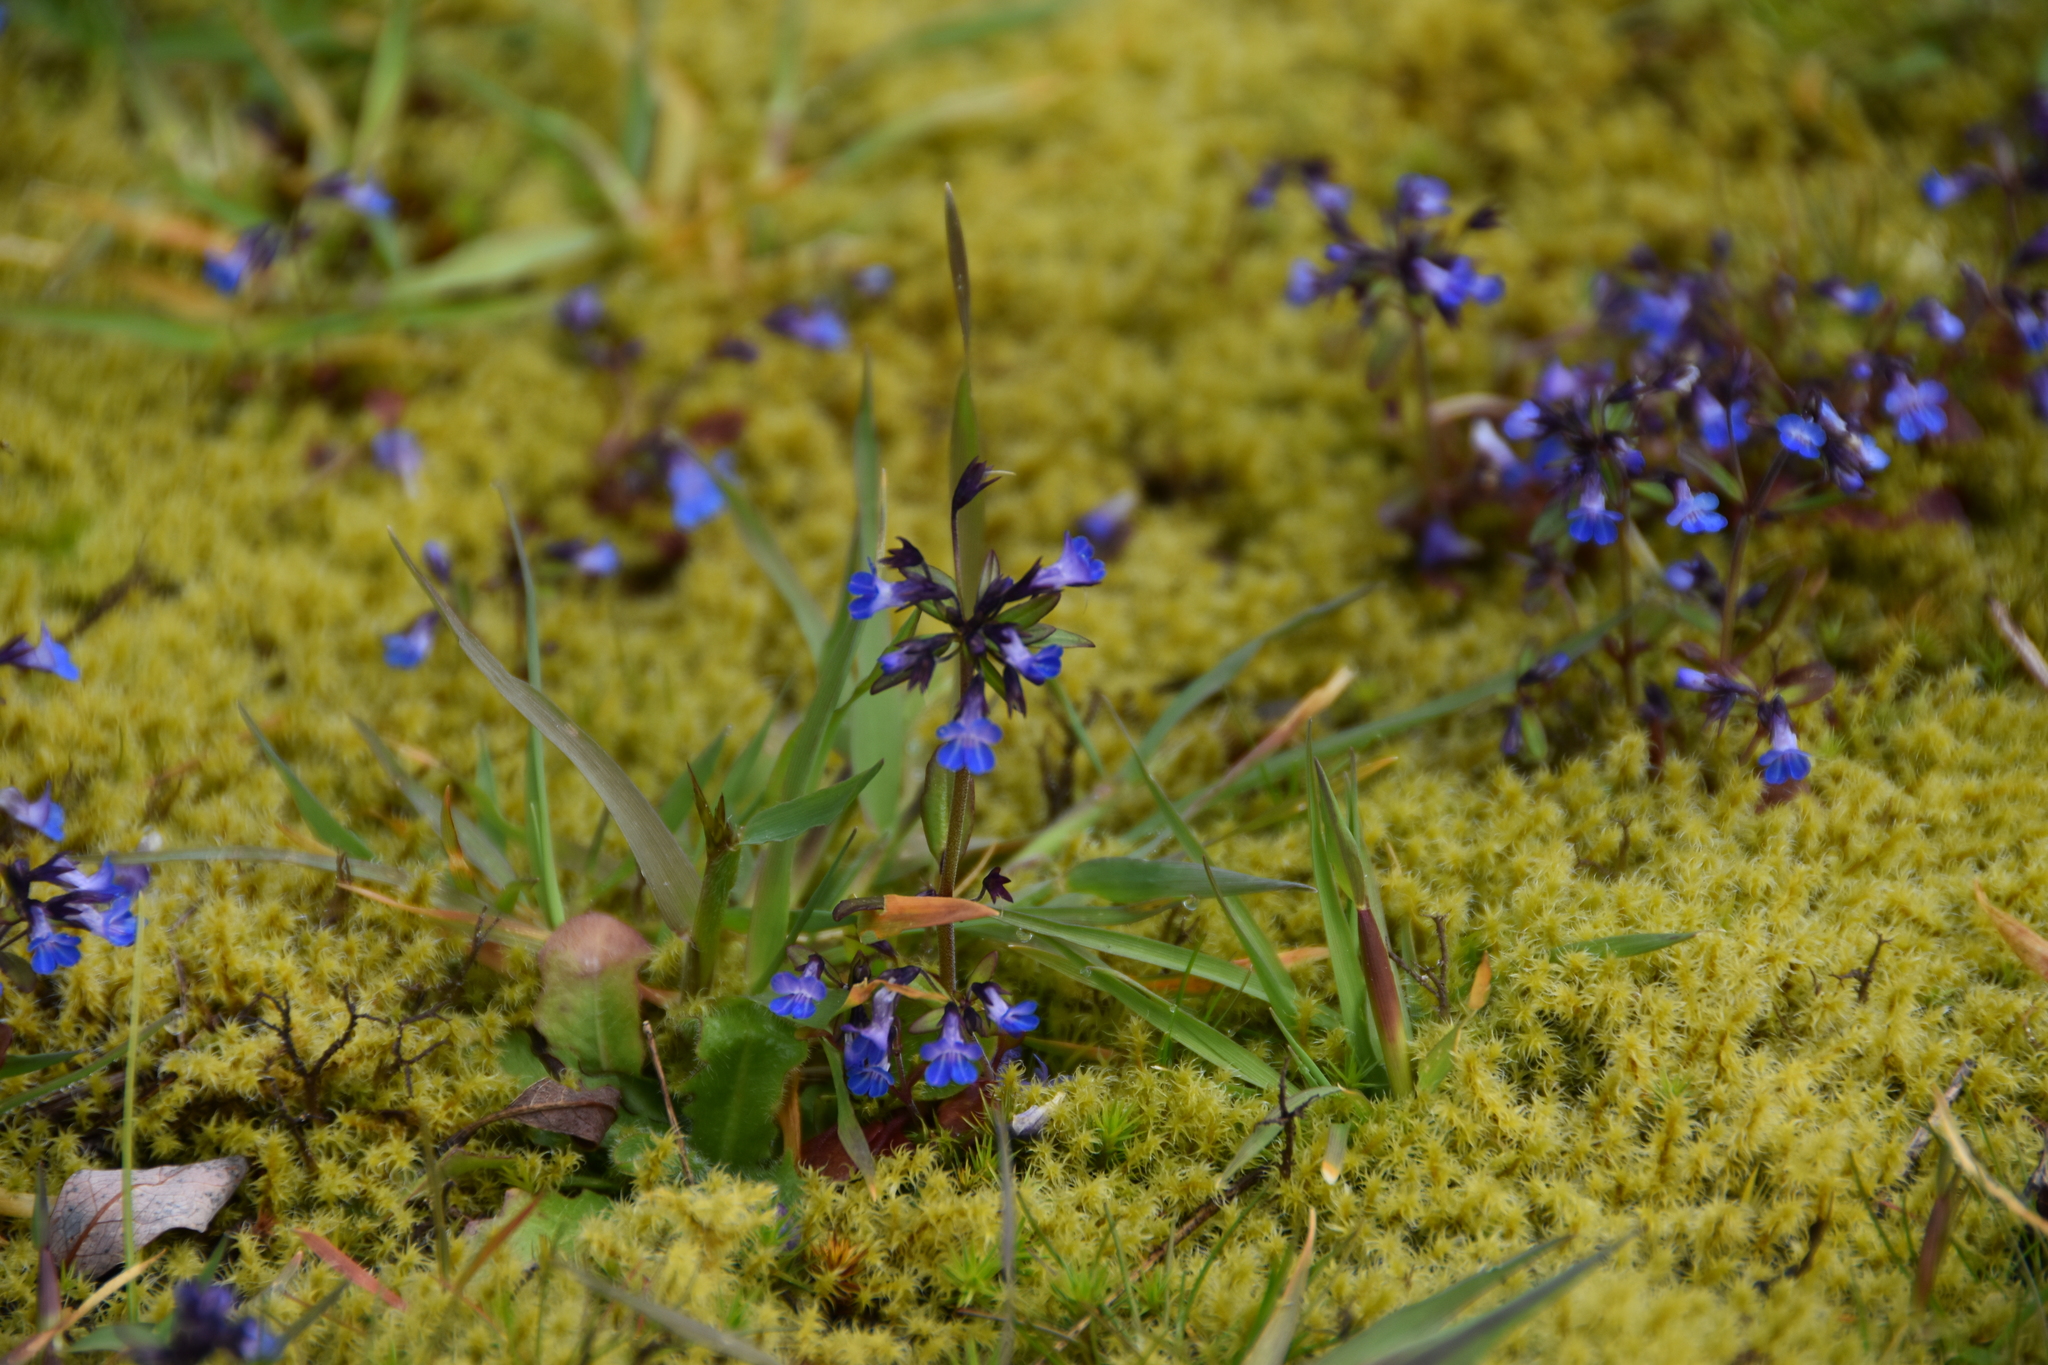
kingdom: Plantae
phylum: Tracheophyta
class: Magnoliopsida
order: Lamiales
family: Plantaginaceae
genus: Collinsia
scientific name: Collinsia parviflora
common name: Blue-lips
